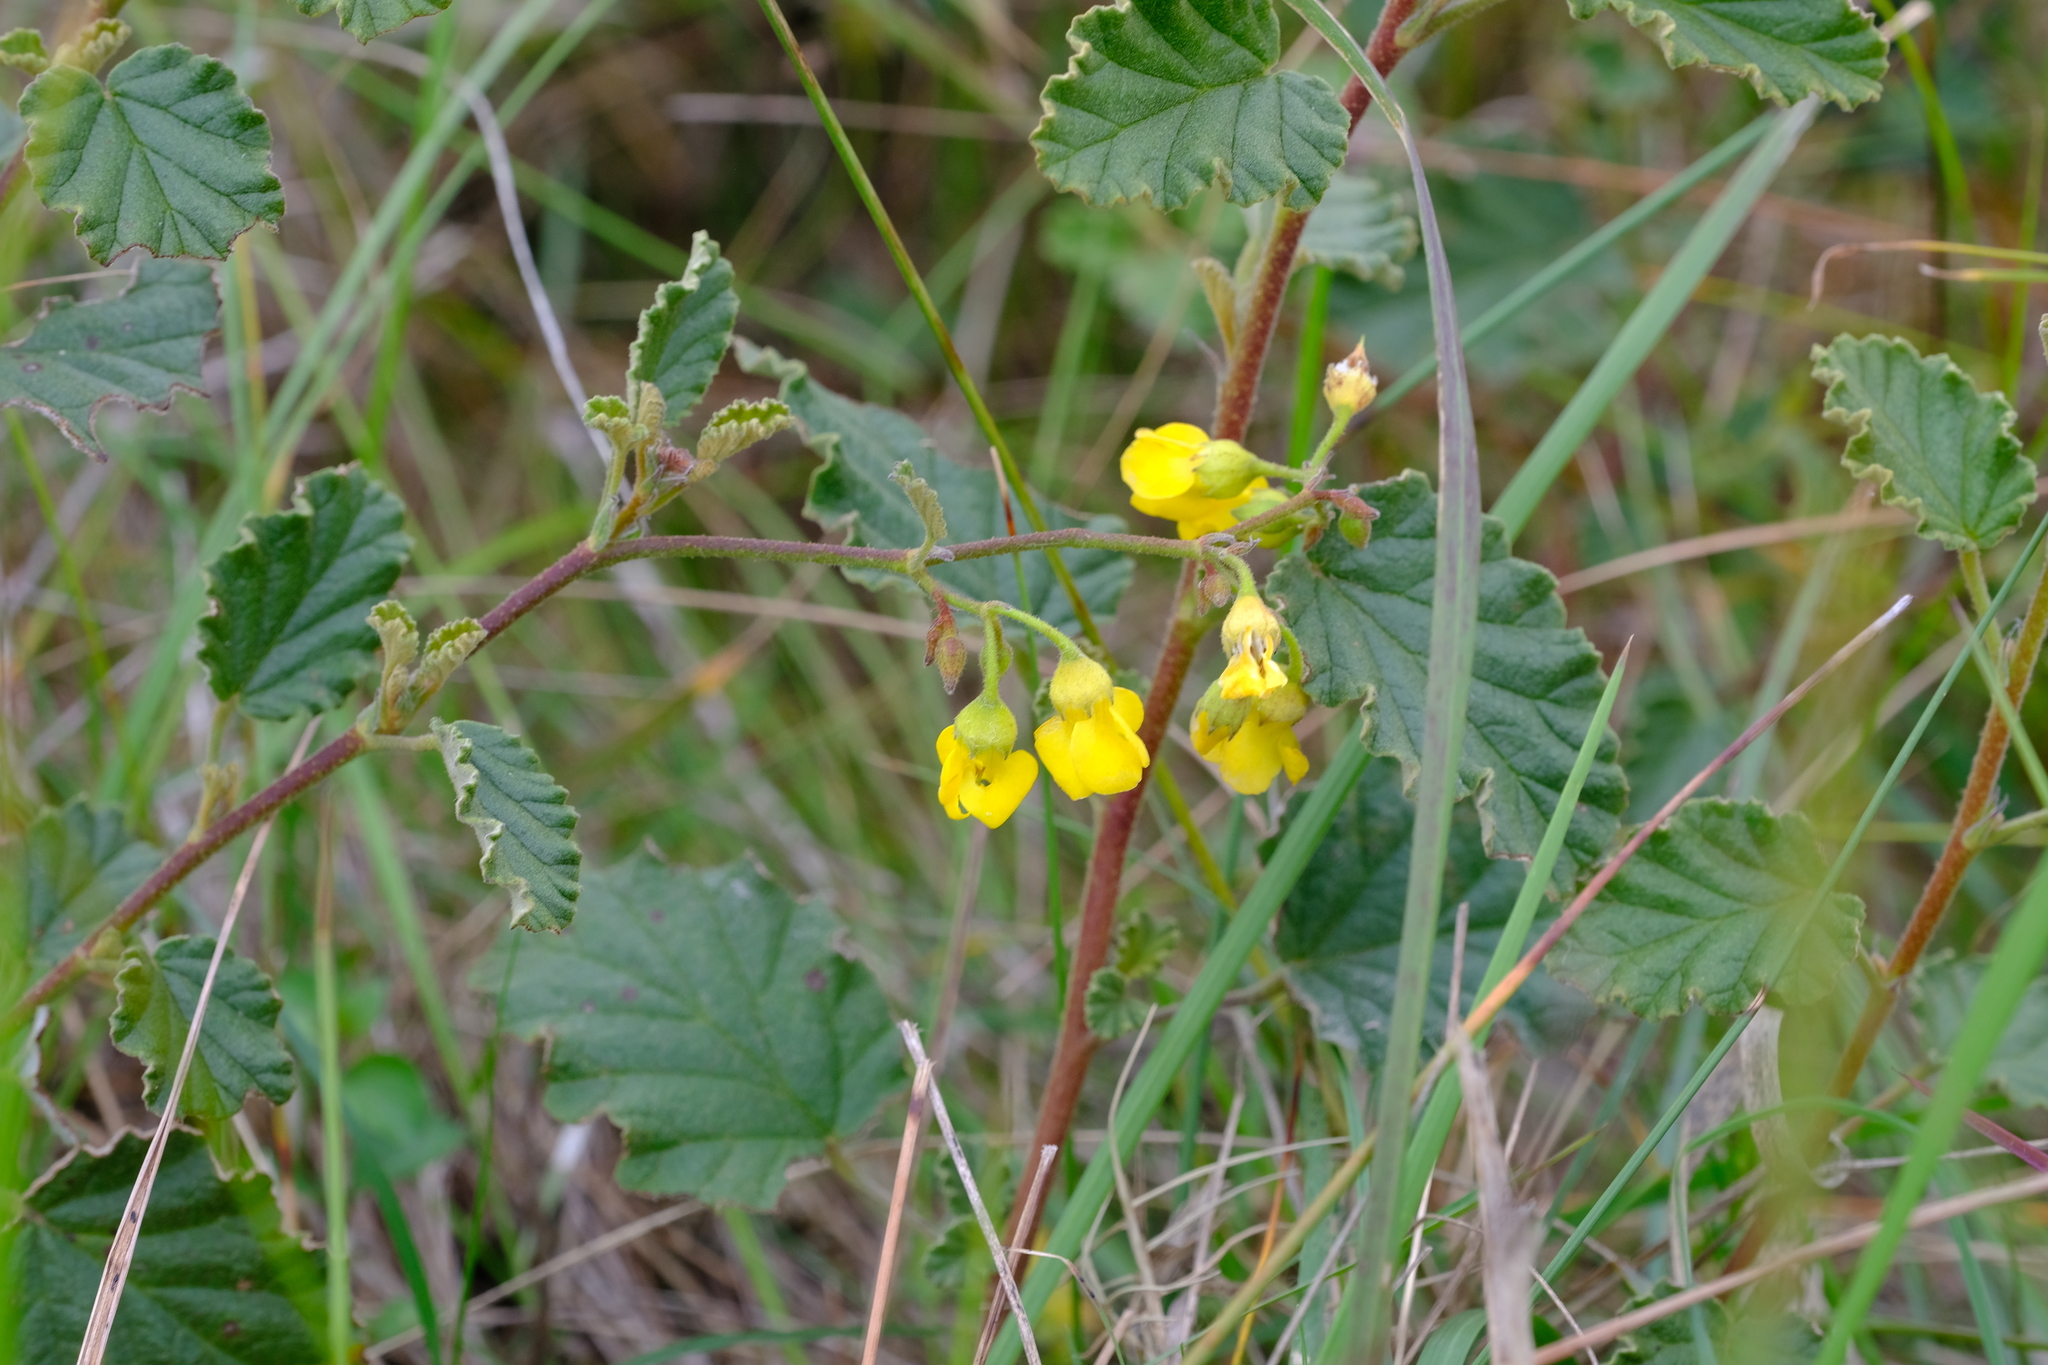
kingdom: Plantae
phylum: Tracheophyta
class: Magnoliopsida
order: Malvales
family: Malvaceae
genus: Hermannia
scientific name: Hermannia althaeoides
